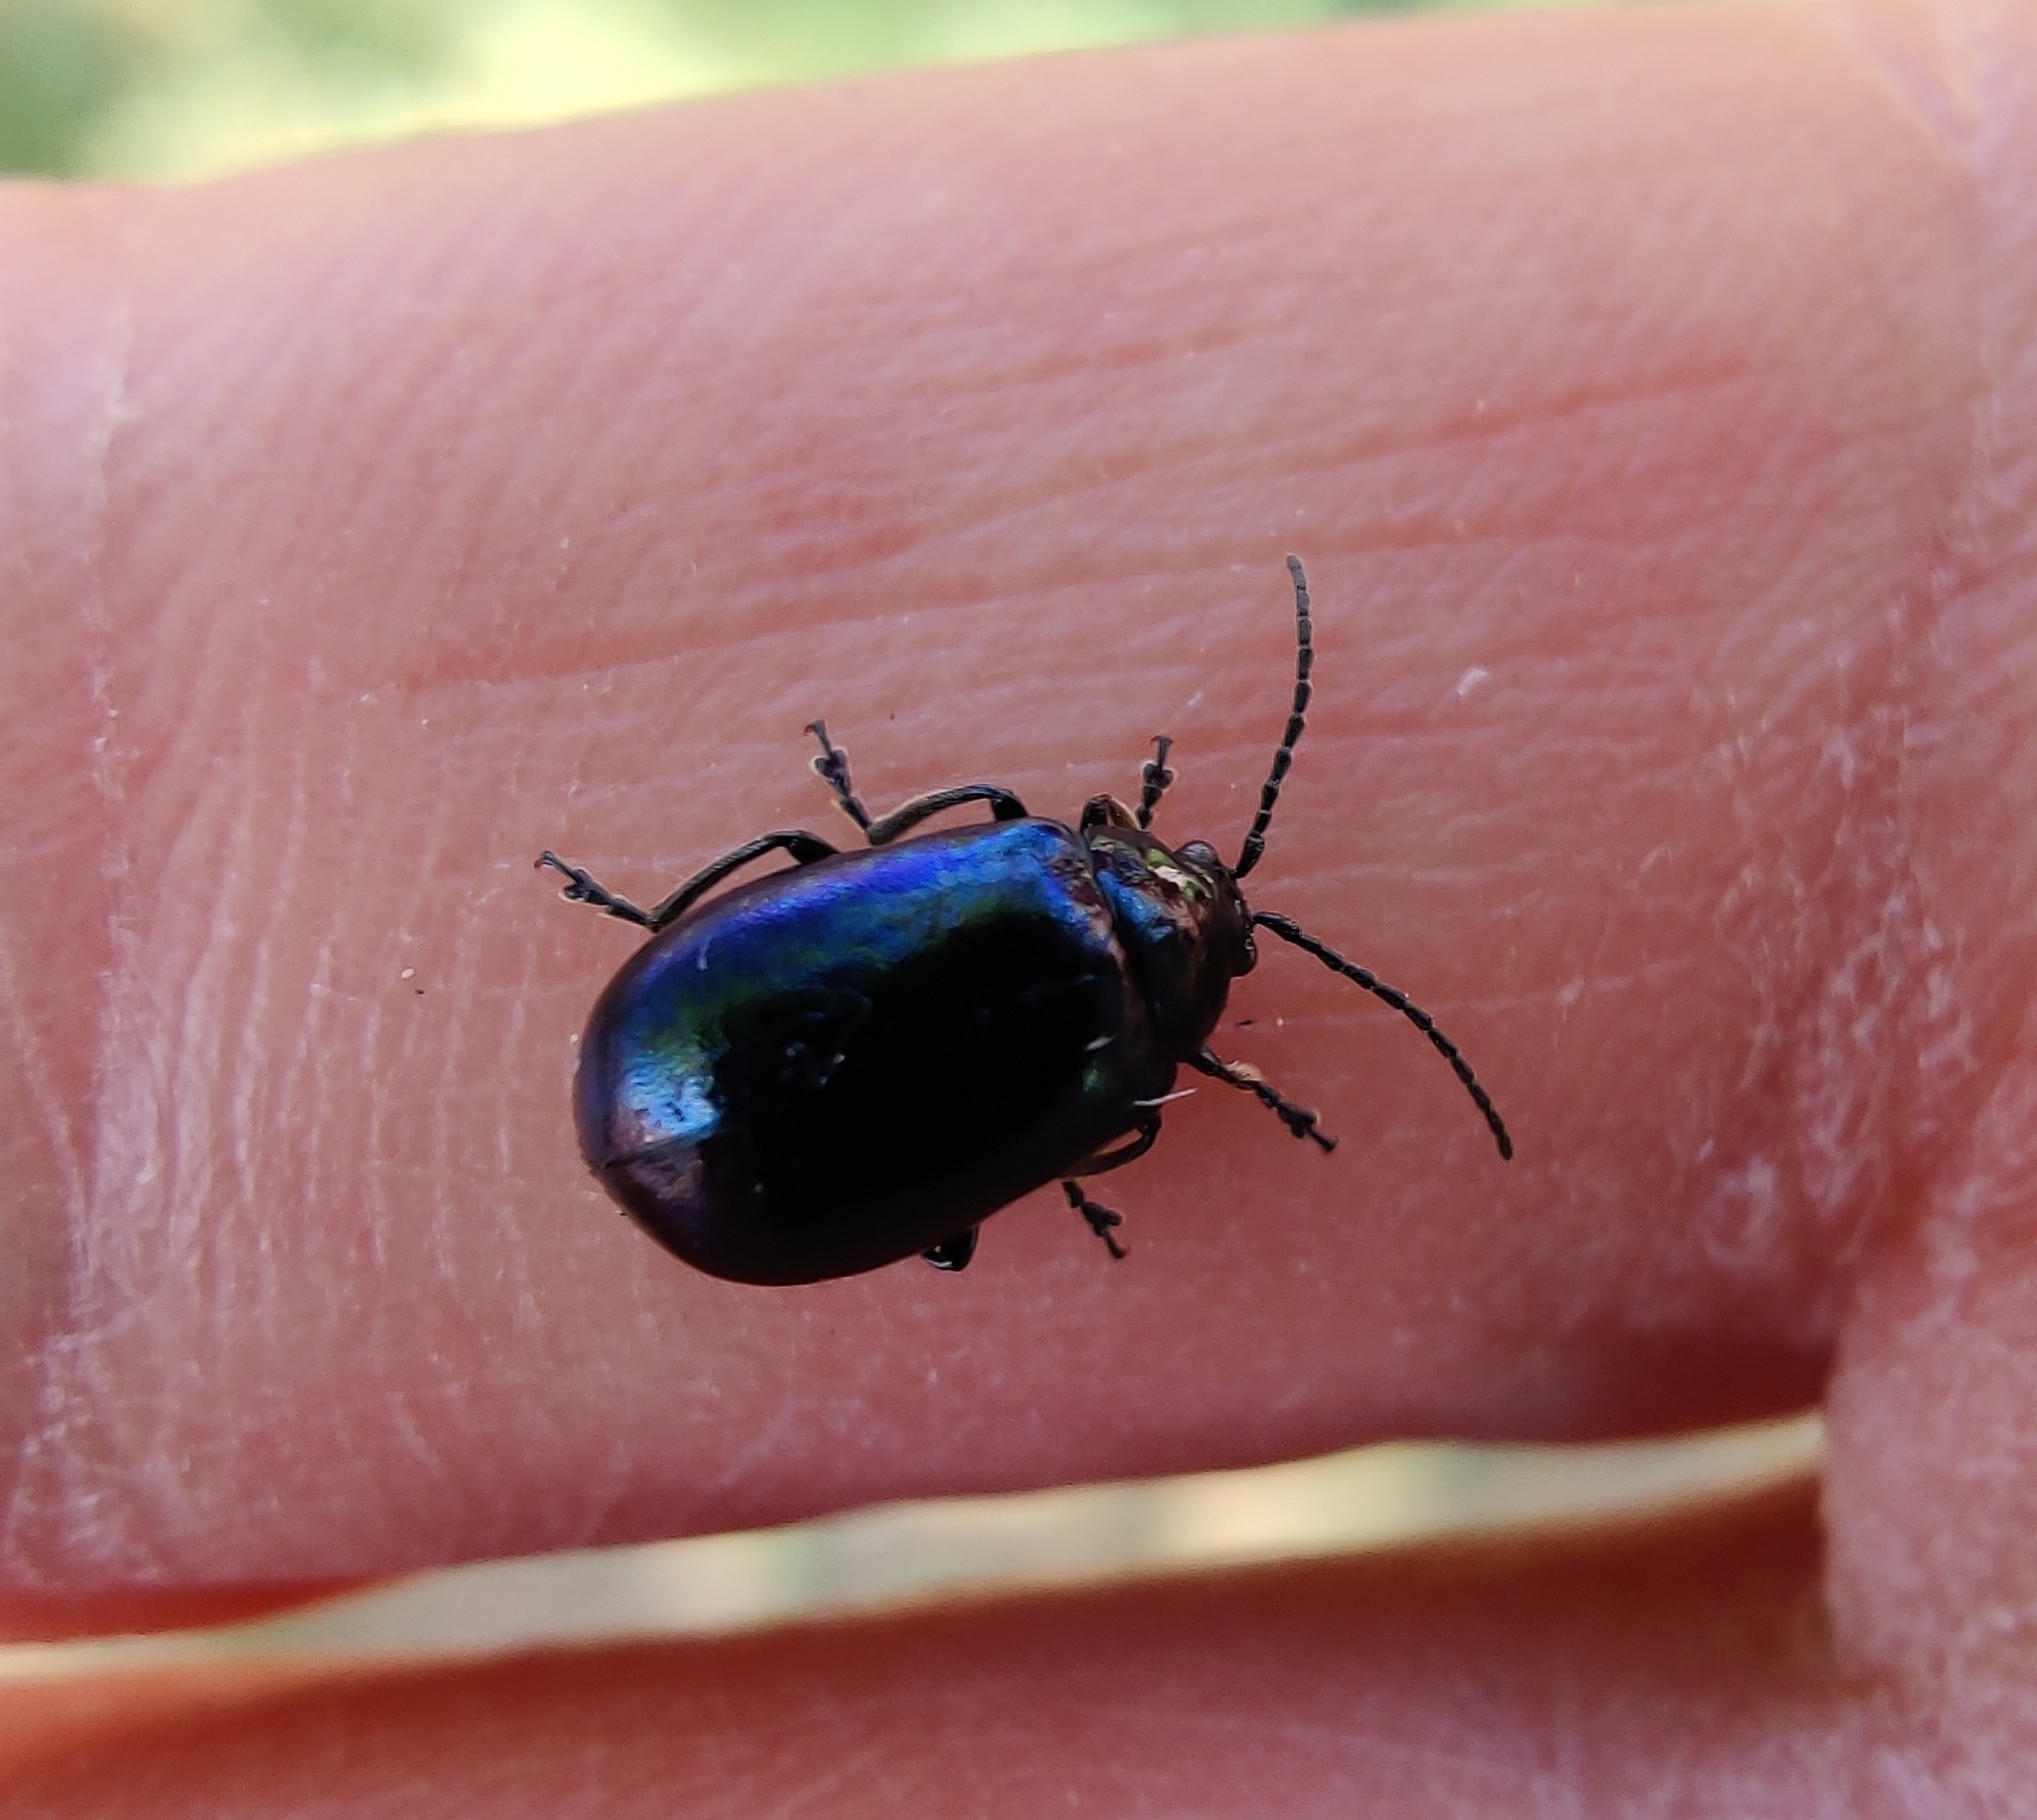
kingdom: Animalia
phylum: Arthropoda
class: Insecta
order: Coleoptera
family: Chrysomelidae
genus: Agelastica
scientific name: Agelastica alni
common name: Alder leaf beetle
